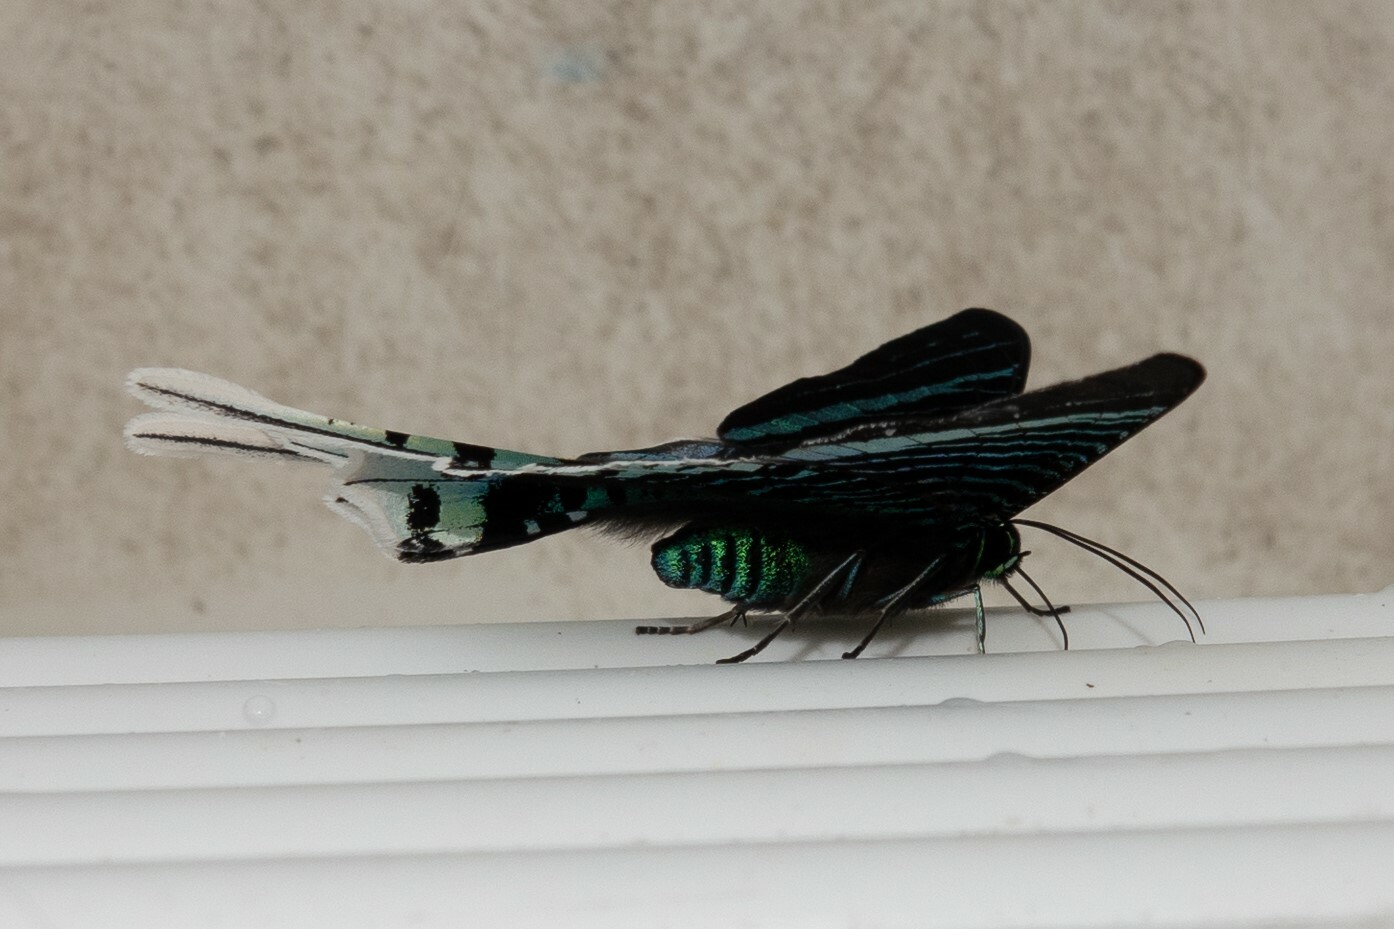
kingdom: Animalia
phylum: Arthropoda
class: Insecta
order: Lepidoptera
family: Uraniidae
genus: Urania
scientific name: Urania leilus
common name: Peacock moth
